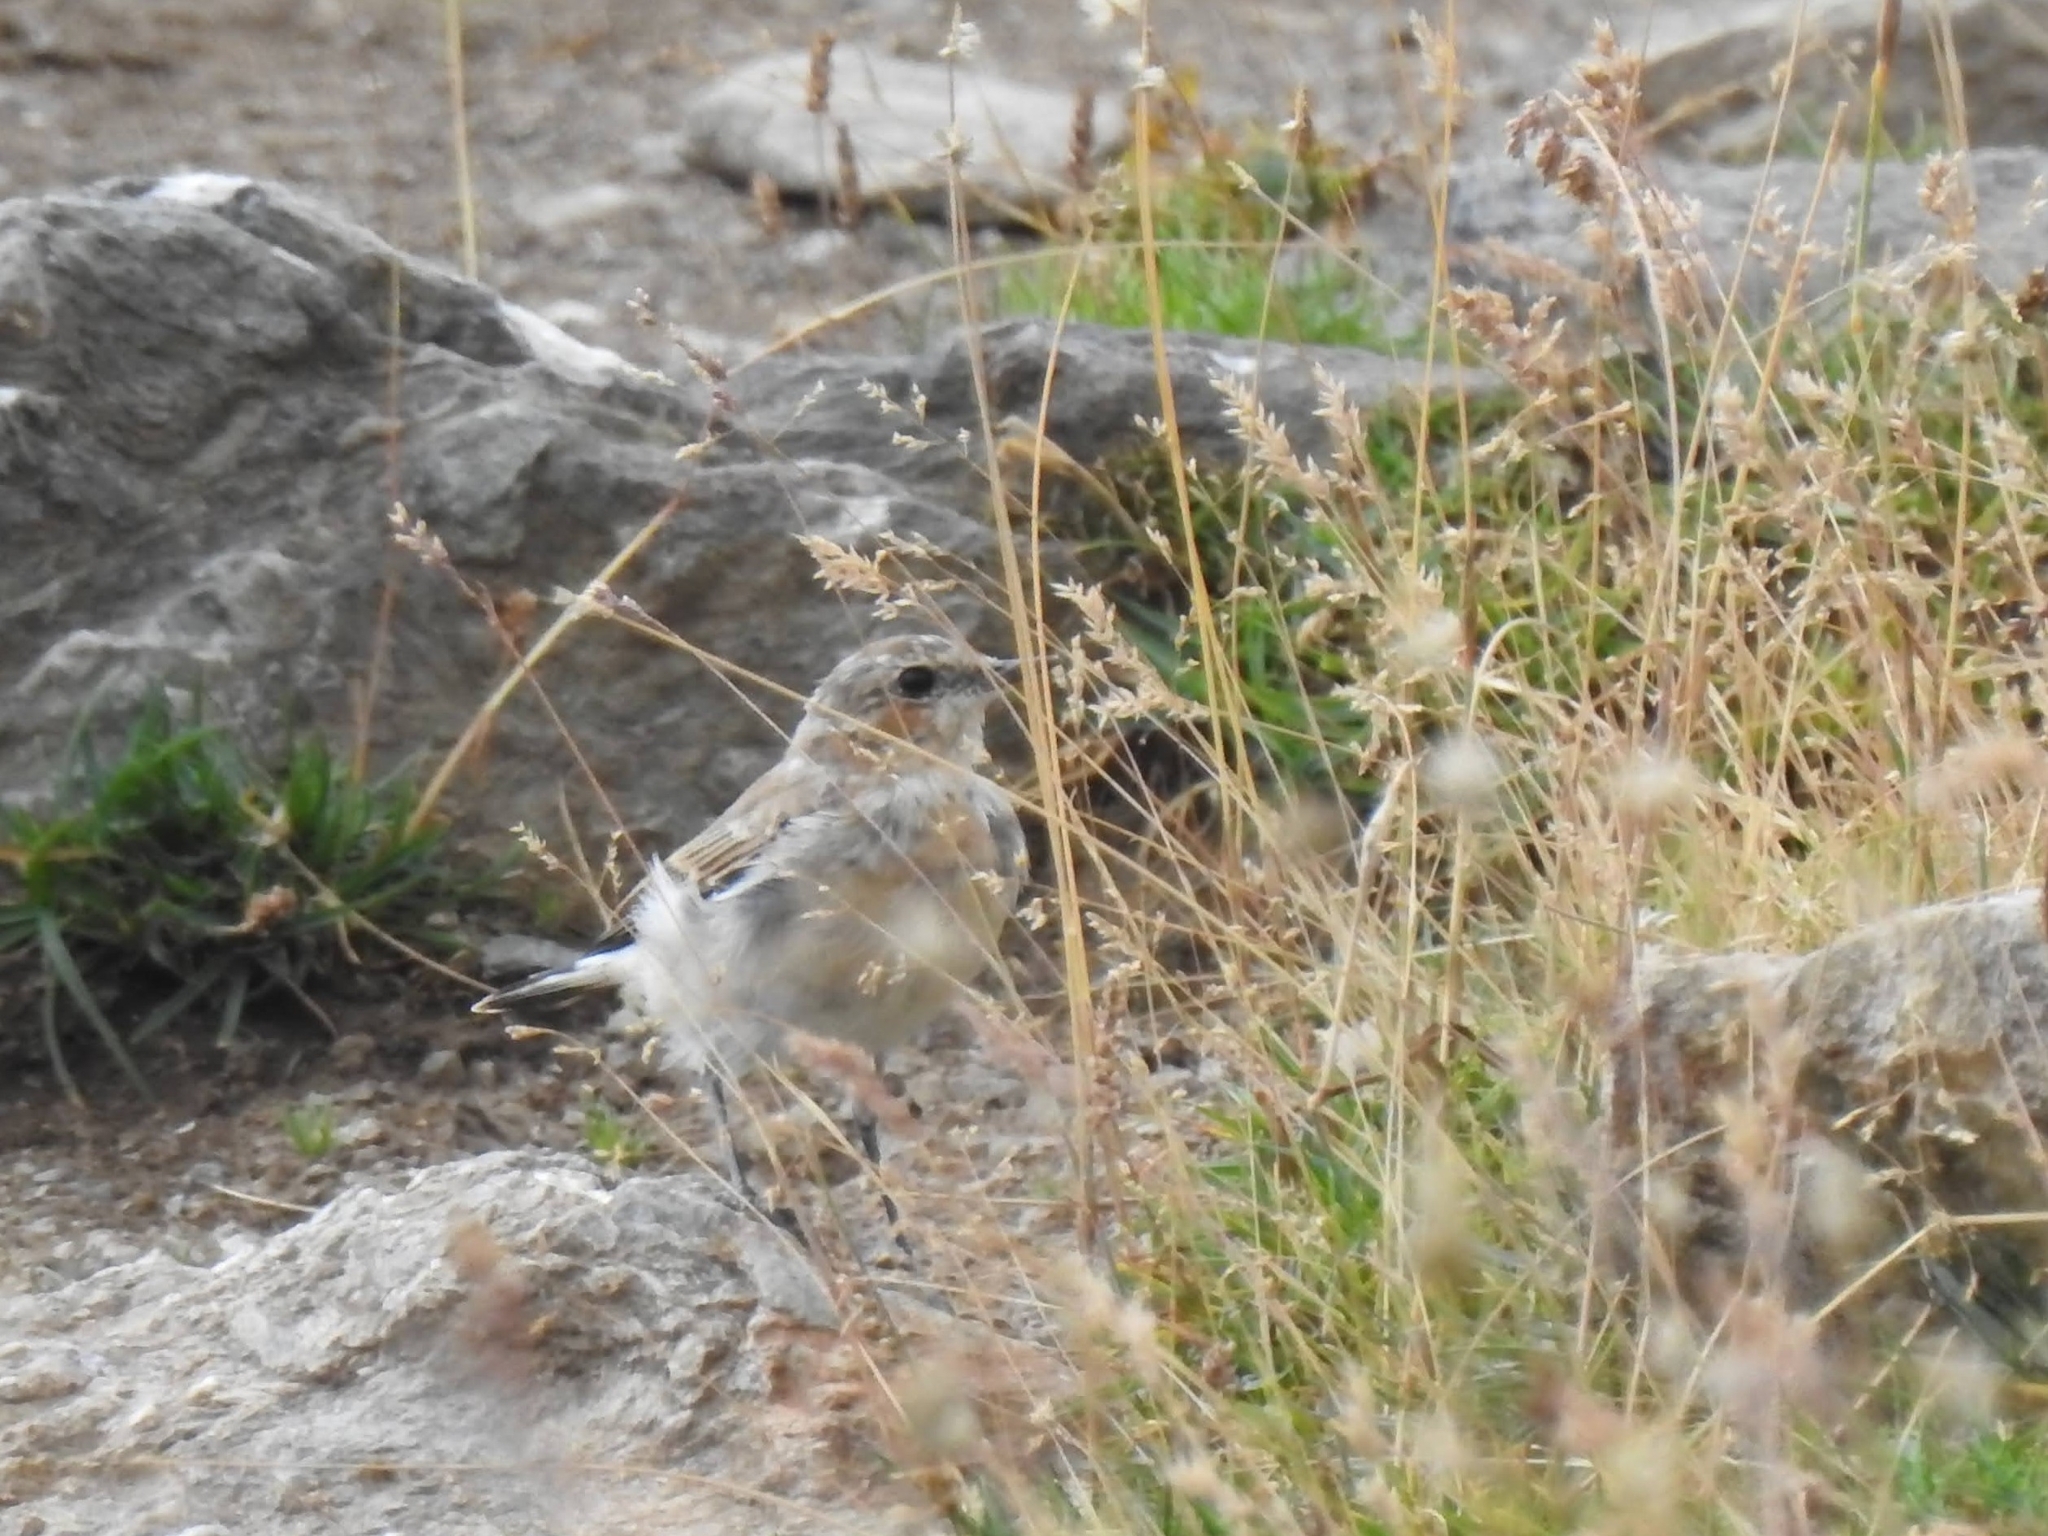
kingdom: Animalia
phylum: Chordata
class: Aves
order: Passeriformes
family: Muscicapidae
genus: Oenanthe
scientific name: Oenanthe oenanthe
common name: Northern wheatear
